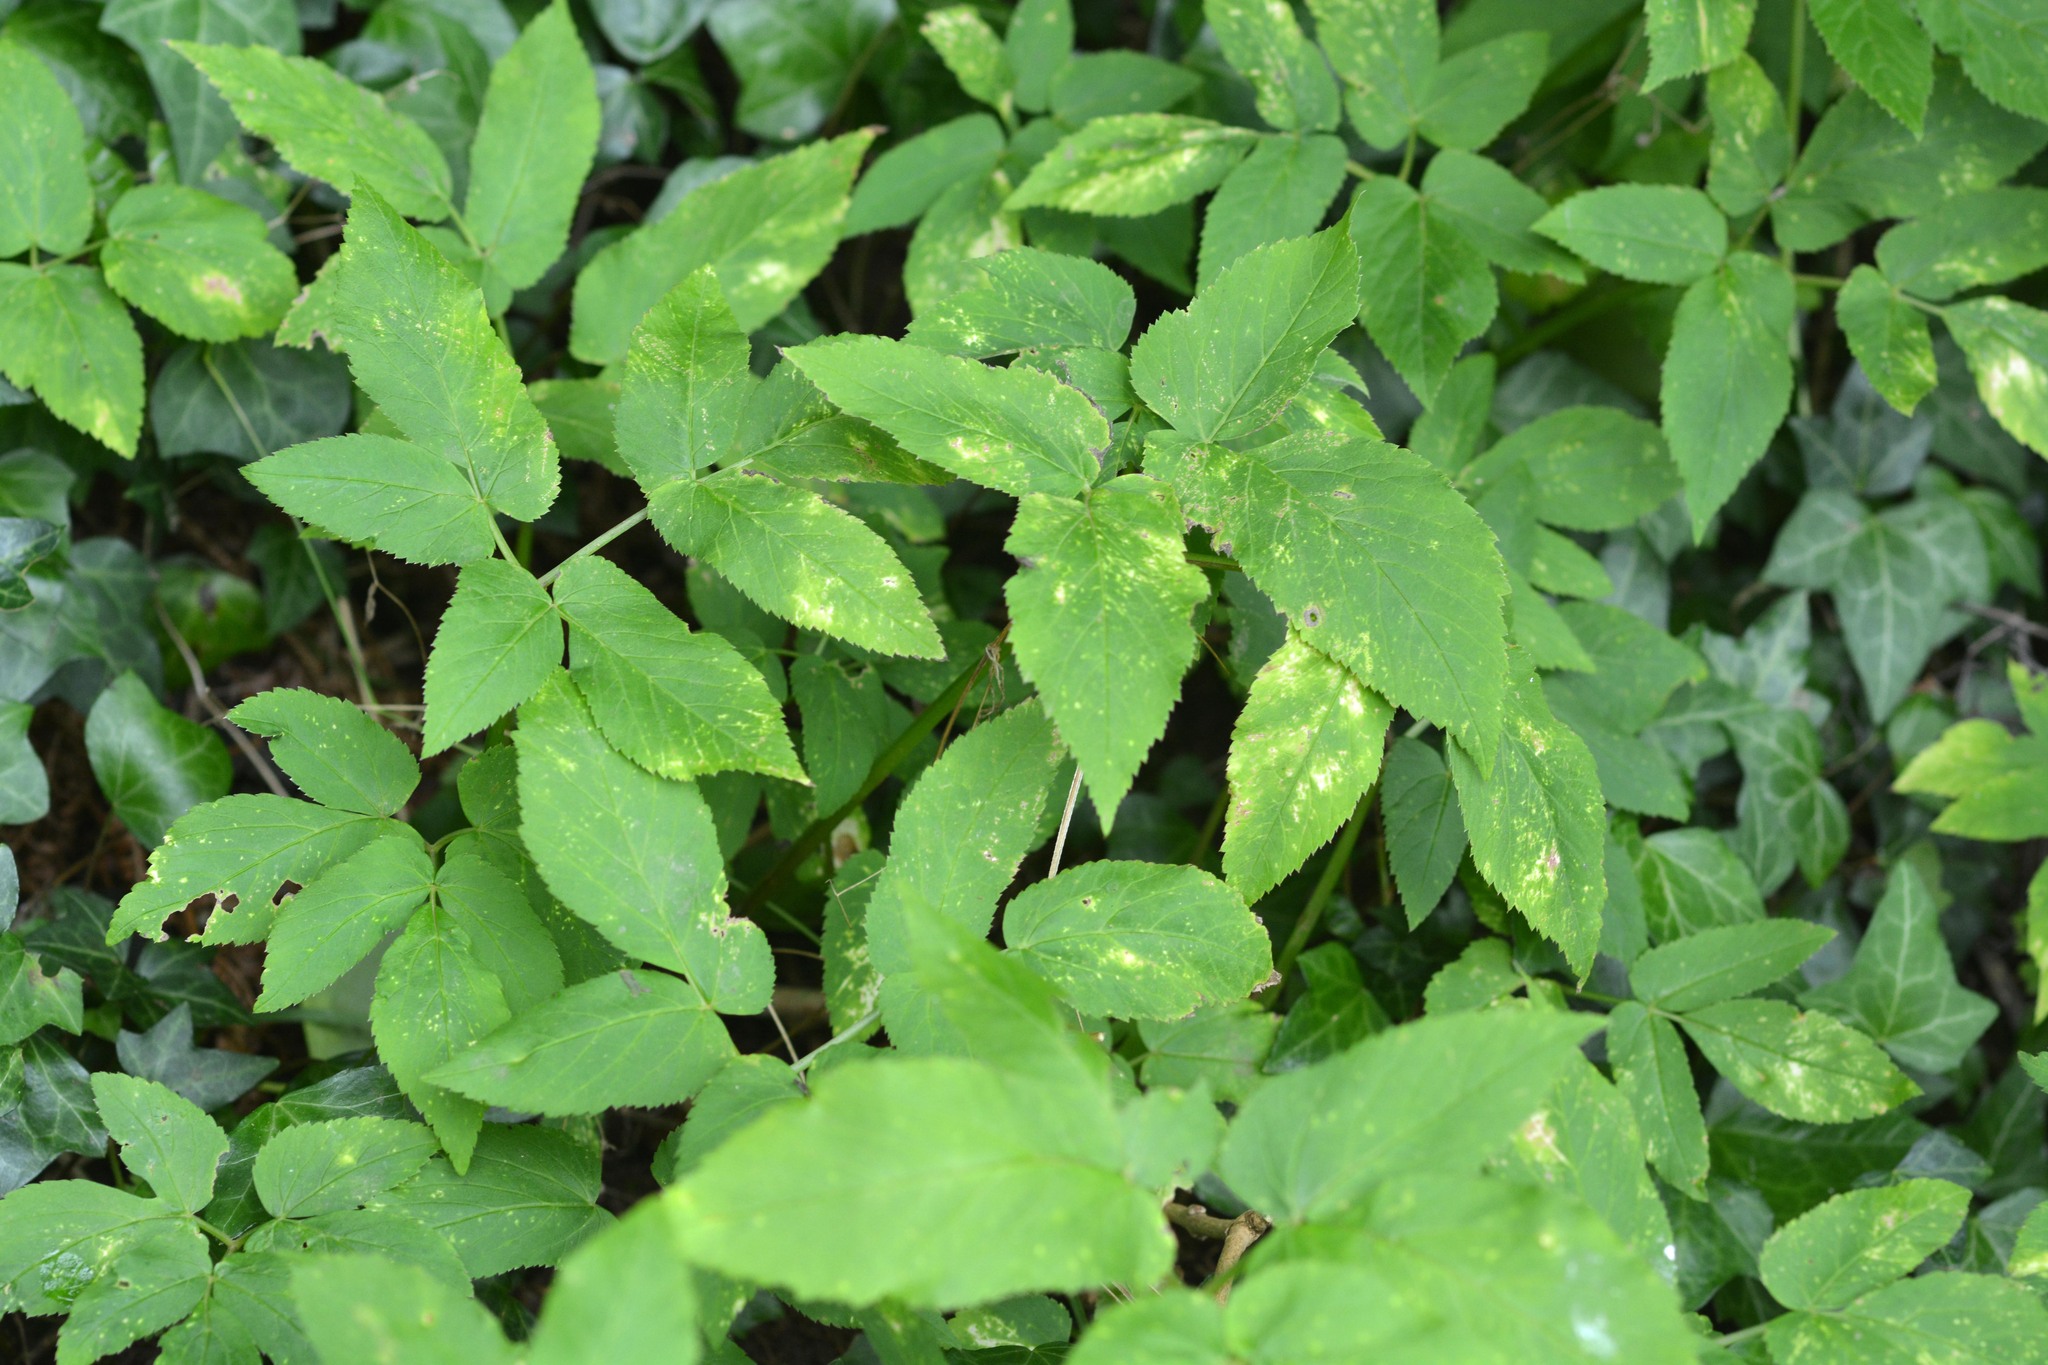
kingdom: Plantae
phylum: Tracheophyta
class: Magnoliopsida
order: Apiales
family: Apiaceae
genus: Aegopodium
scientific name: Aegopodium podagraria
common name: Ground-elder
